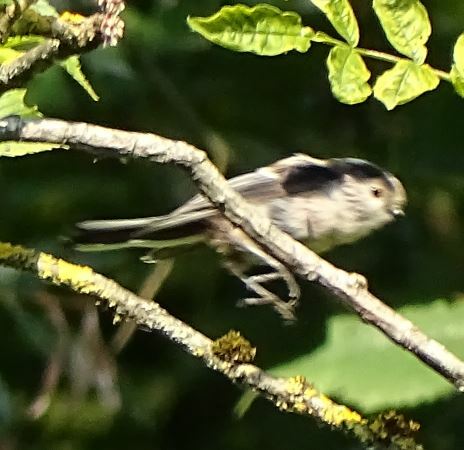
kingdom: Animalia
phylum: Chordata
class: Aves
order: Passeriformes
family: Aegithalidae
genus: Aegithalos
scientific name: Aegithalos caudatus
